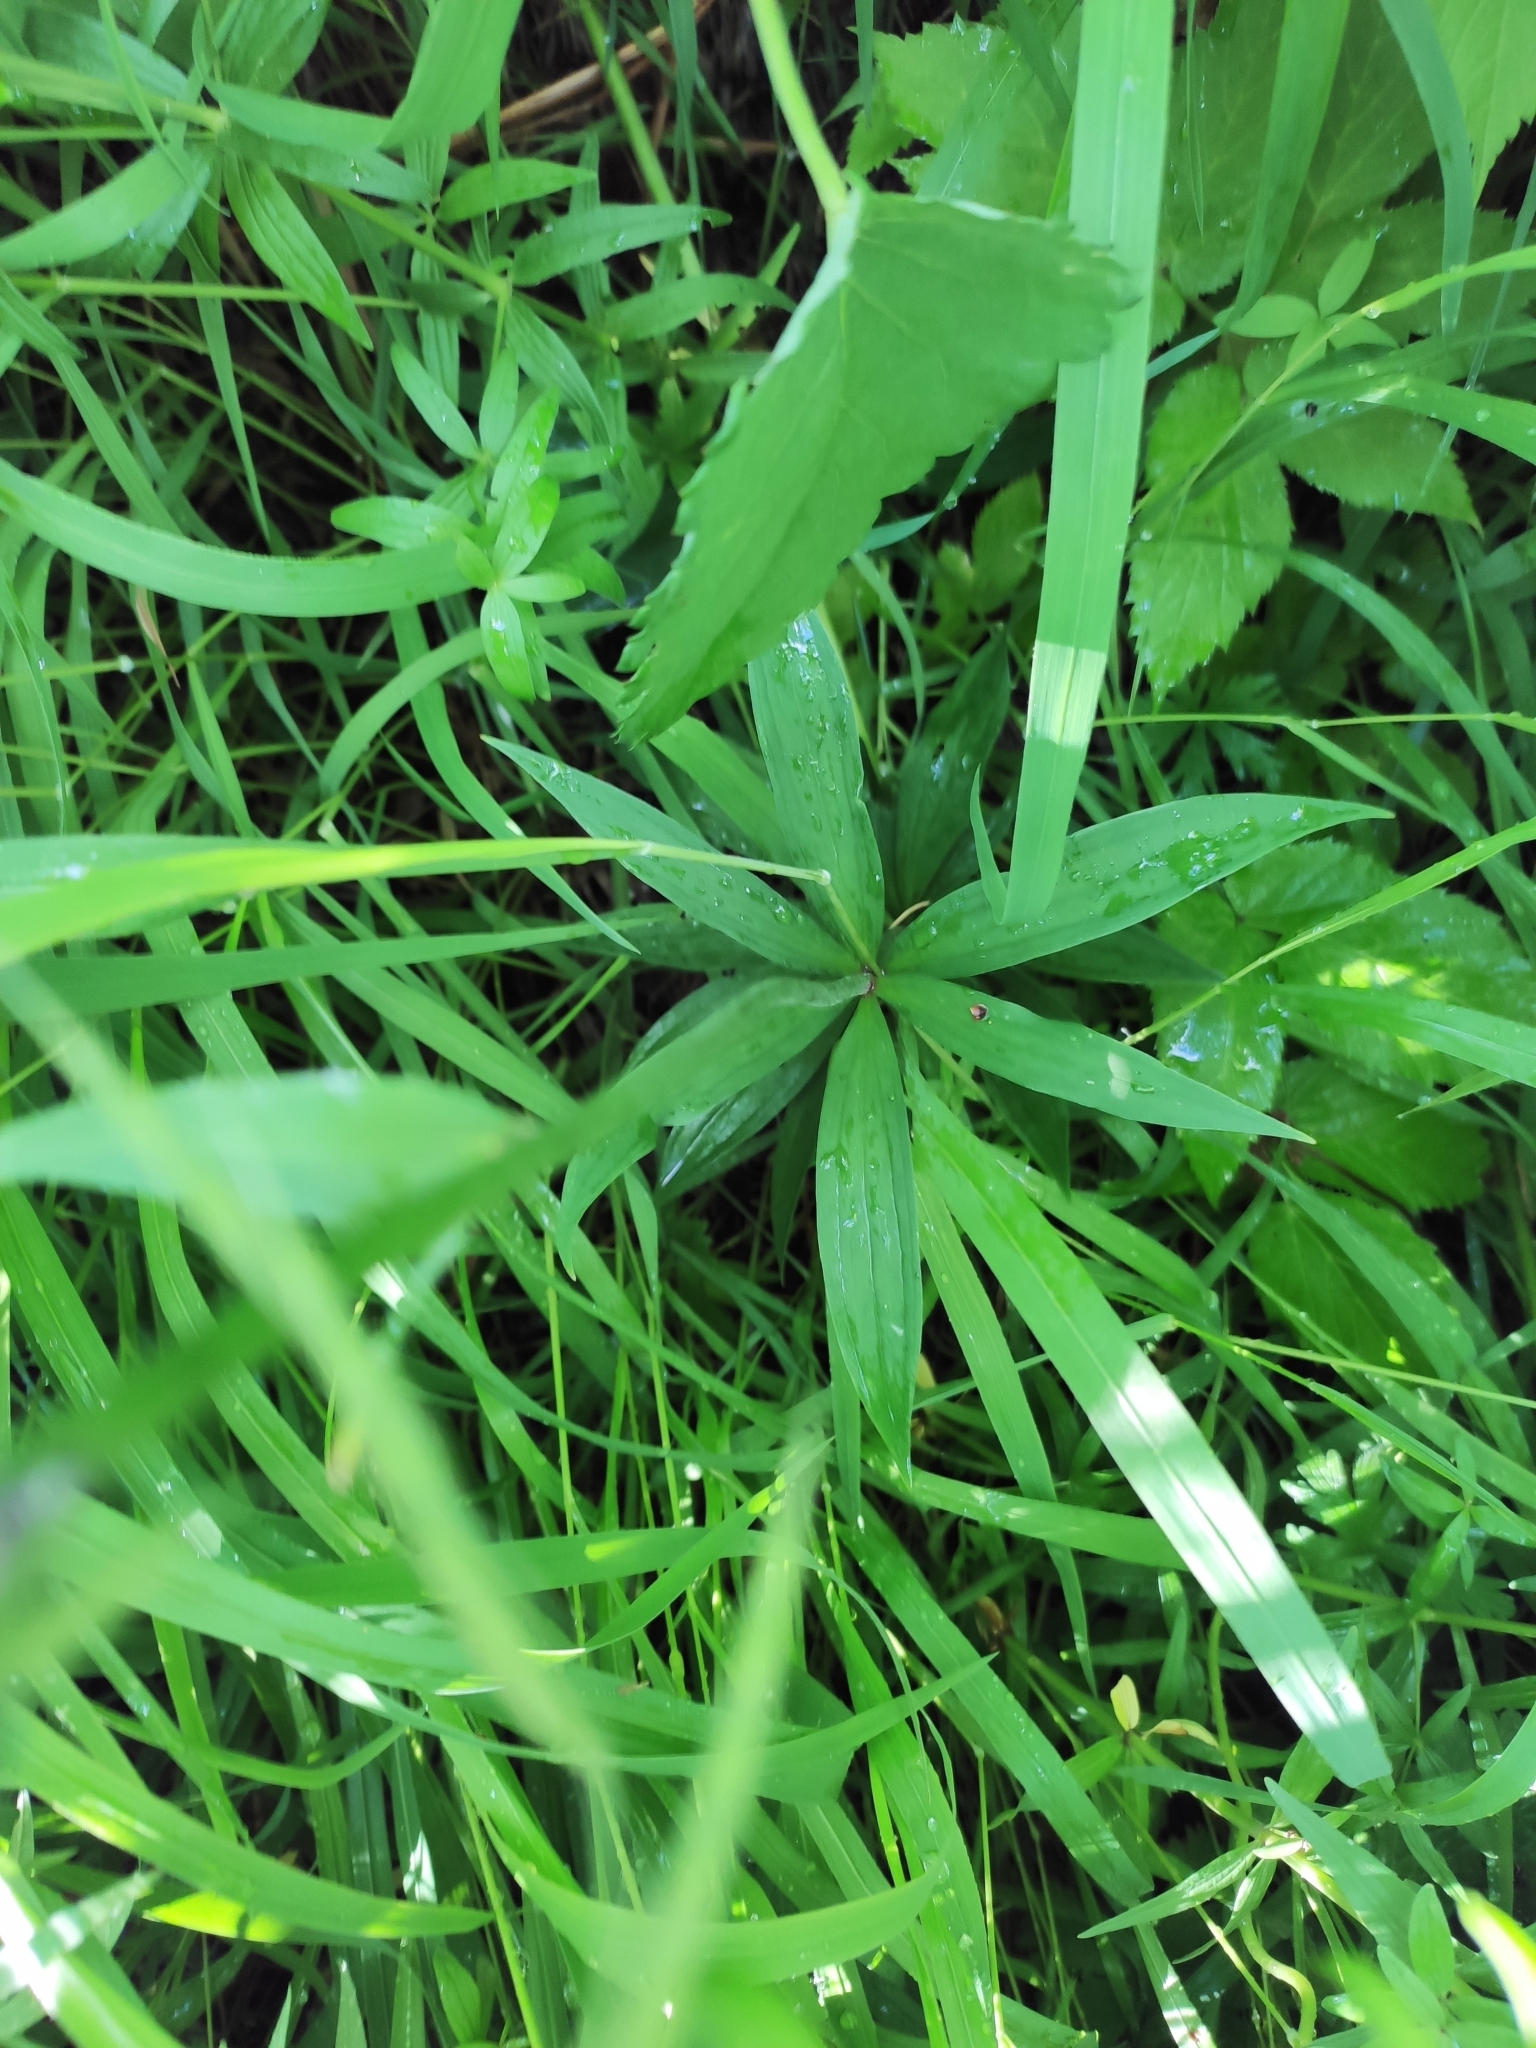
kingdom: Plantae
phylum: Tracheophyta
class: Liliopsida
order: Liliales
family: Liliaceae
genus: Lilium
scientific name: Lilium martagon
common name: Martagon lily
